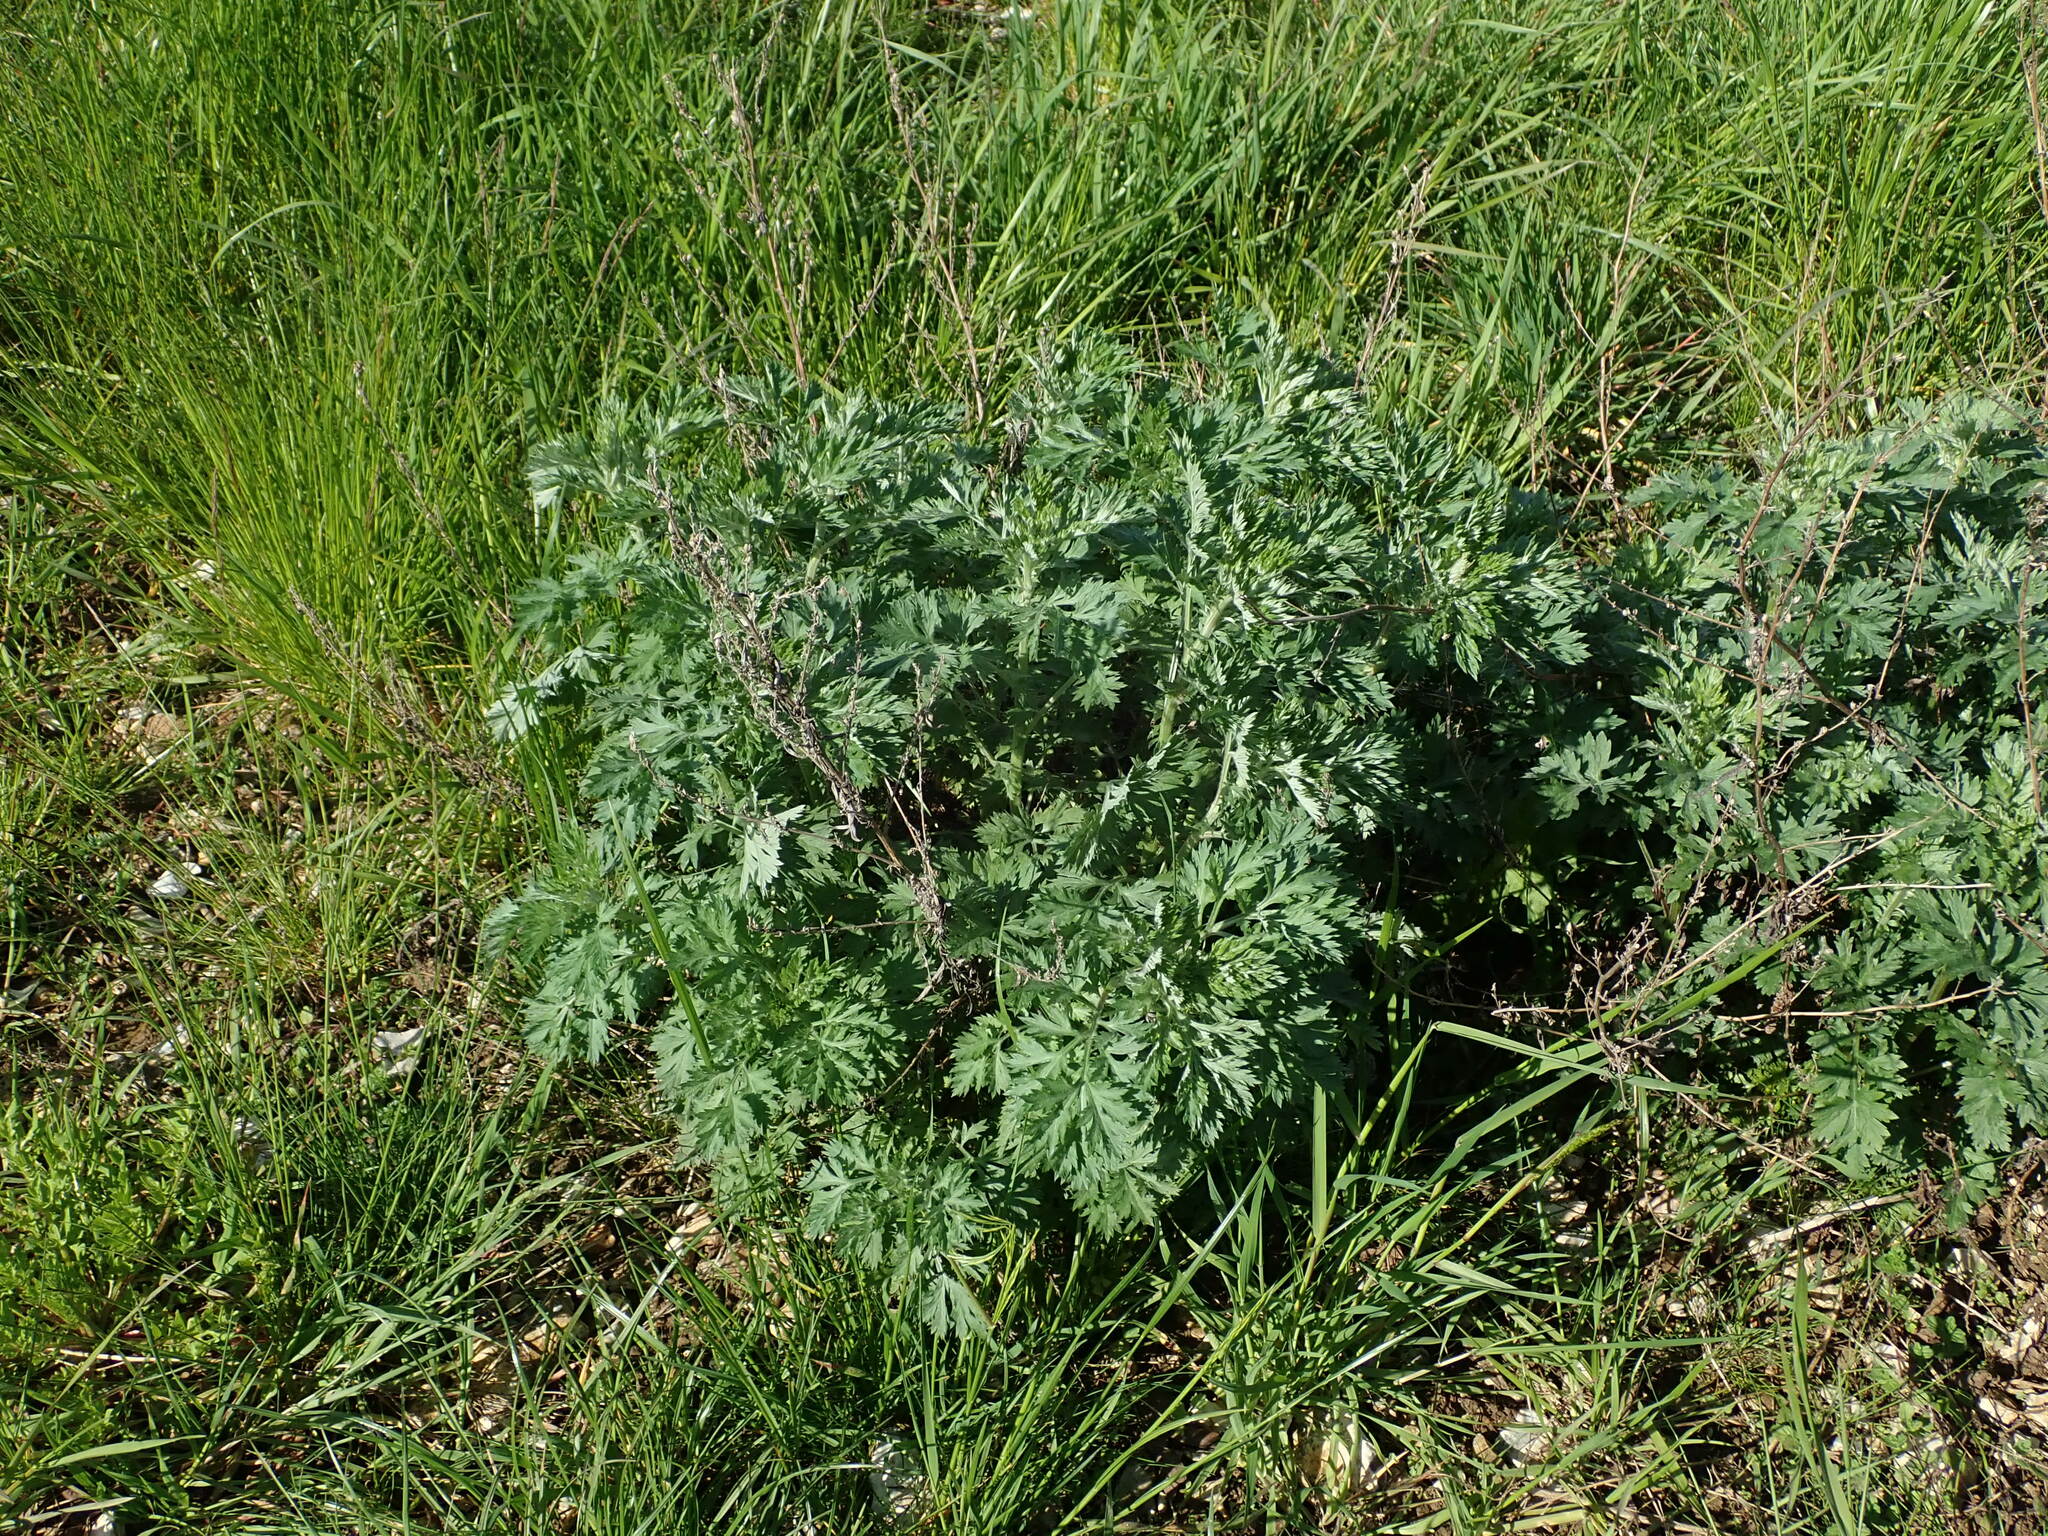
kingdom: Plantae
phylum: Tracheophyta
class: Magnoliopsida
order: Asterales
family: Asteraceae
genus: Artemisia
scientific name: Artemisia vulgaris
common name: Mugwort
